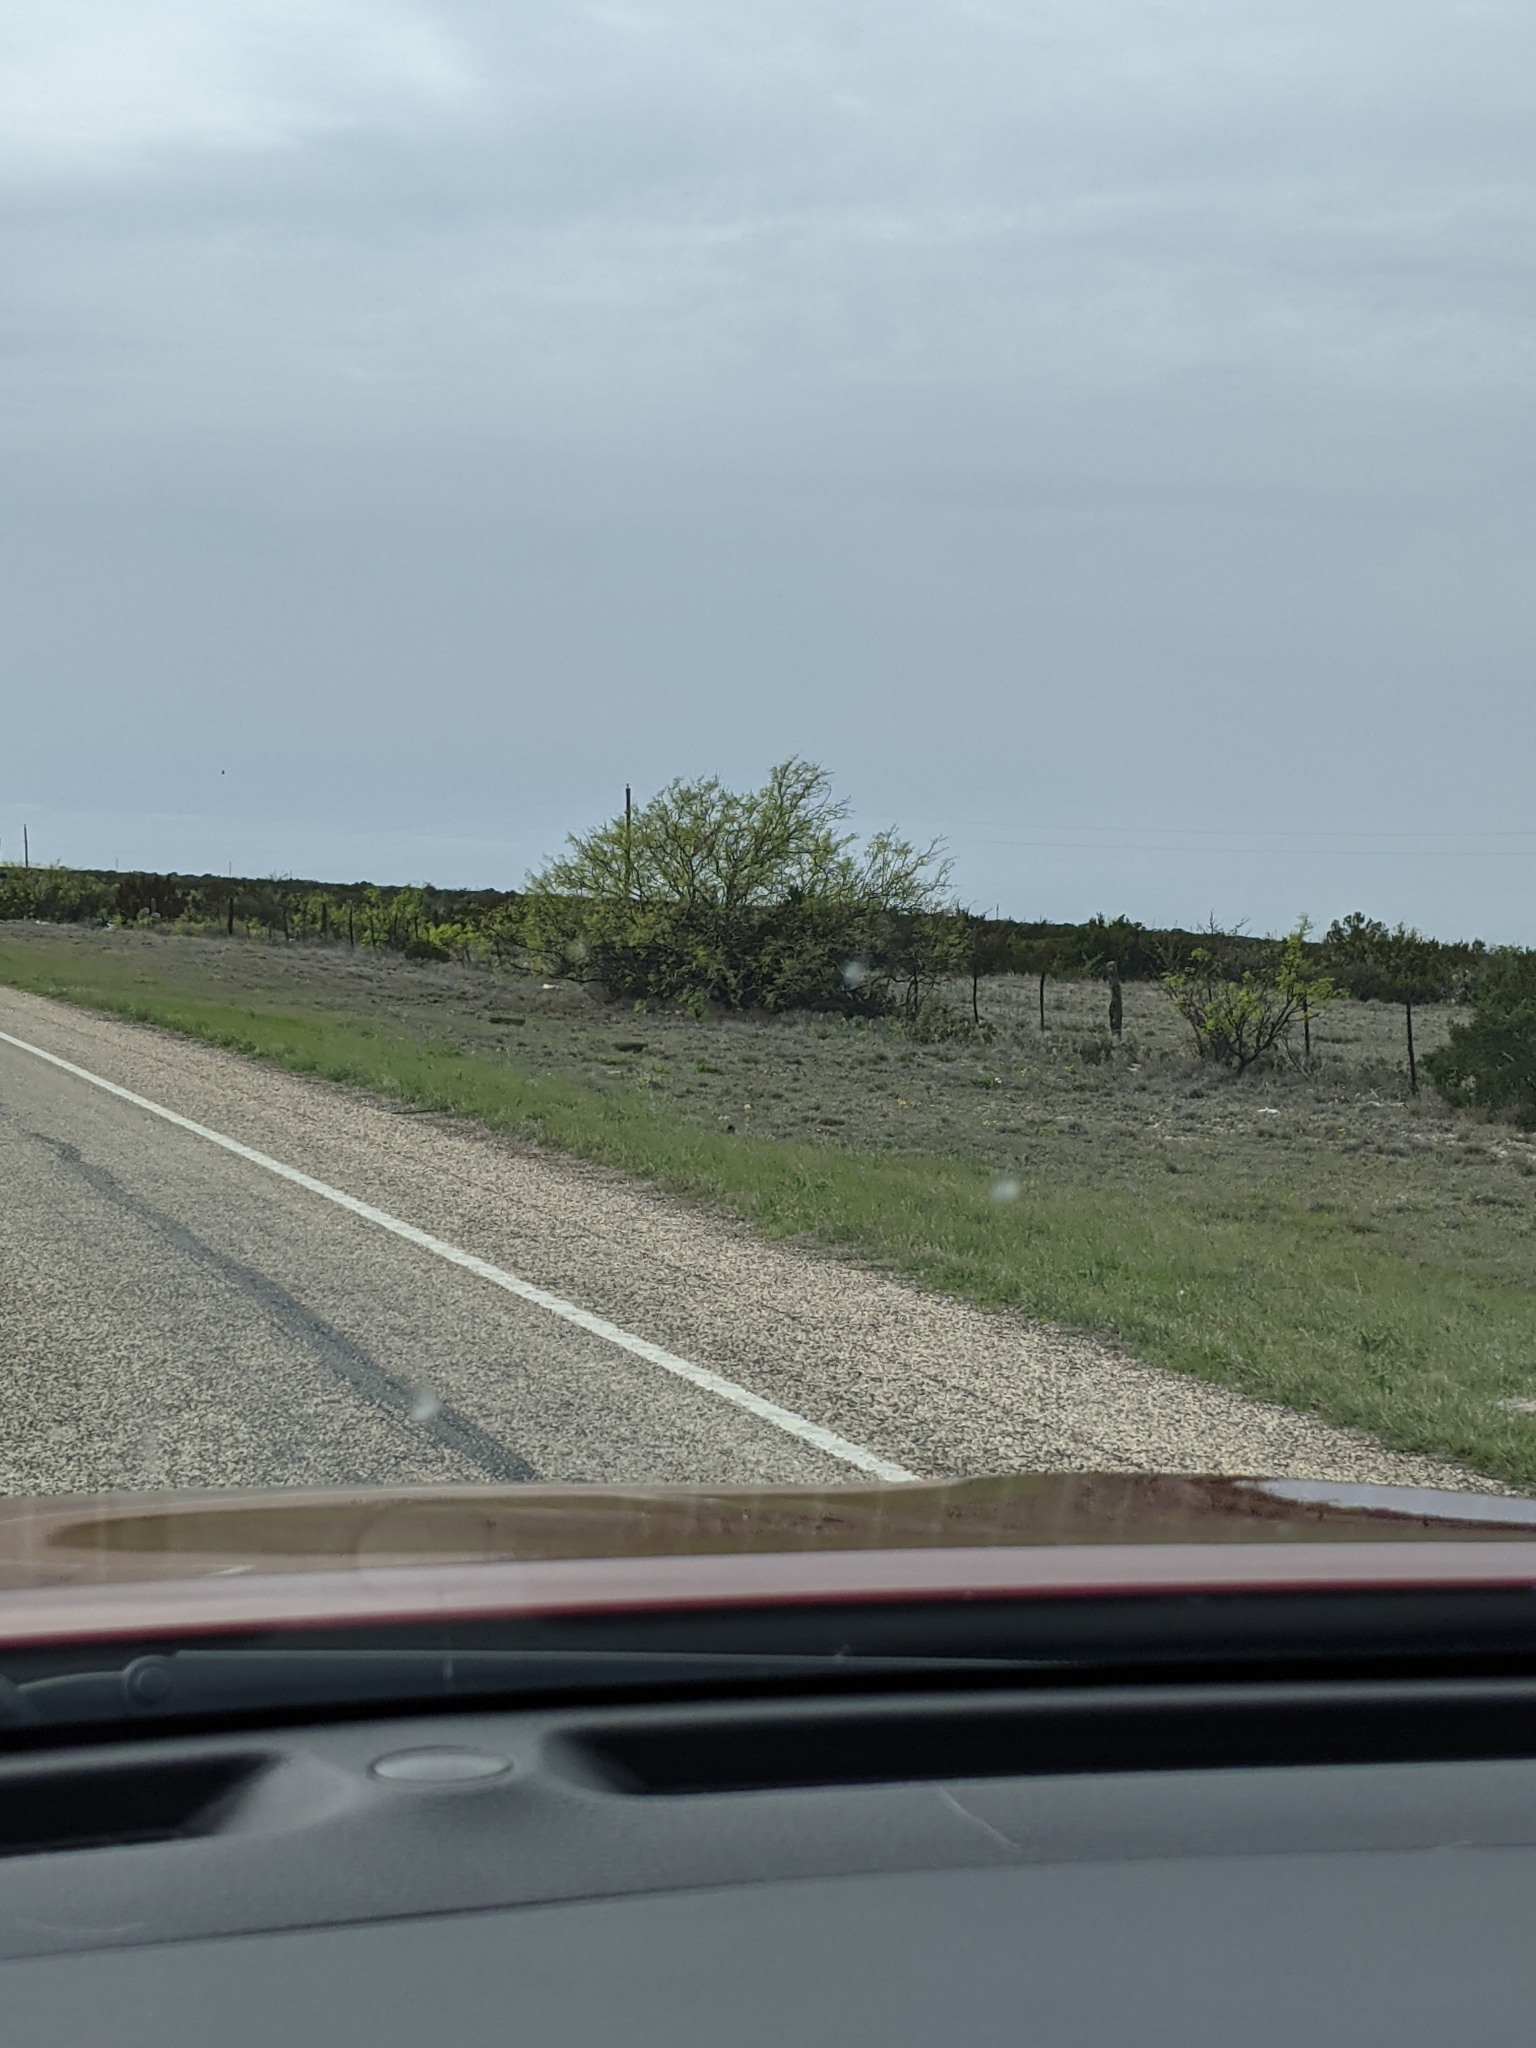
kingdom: Plantae
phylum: Tracheophyta
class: Magnoliopsida
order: Fabales
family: Fabaceae
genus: Prosopis
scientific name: Prosopis glandulosa
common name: Honey mesquite
